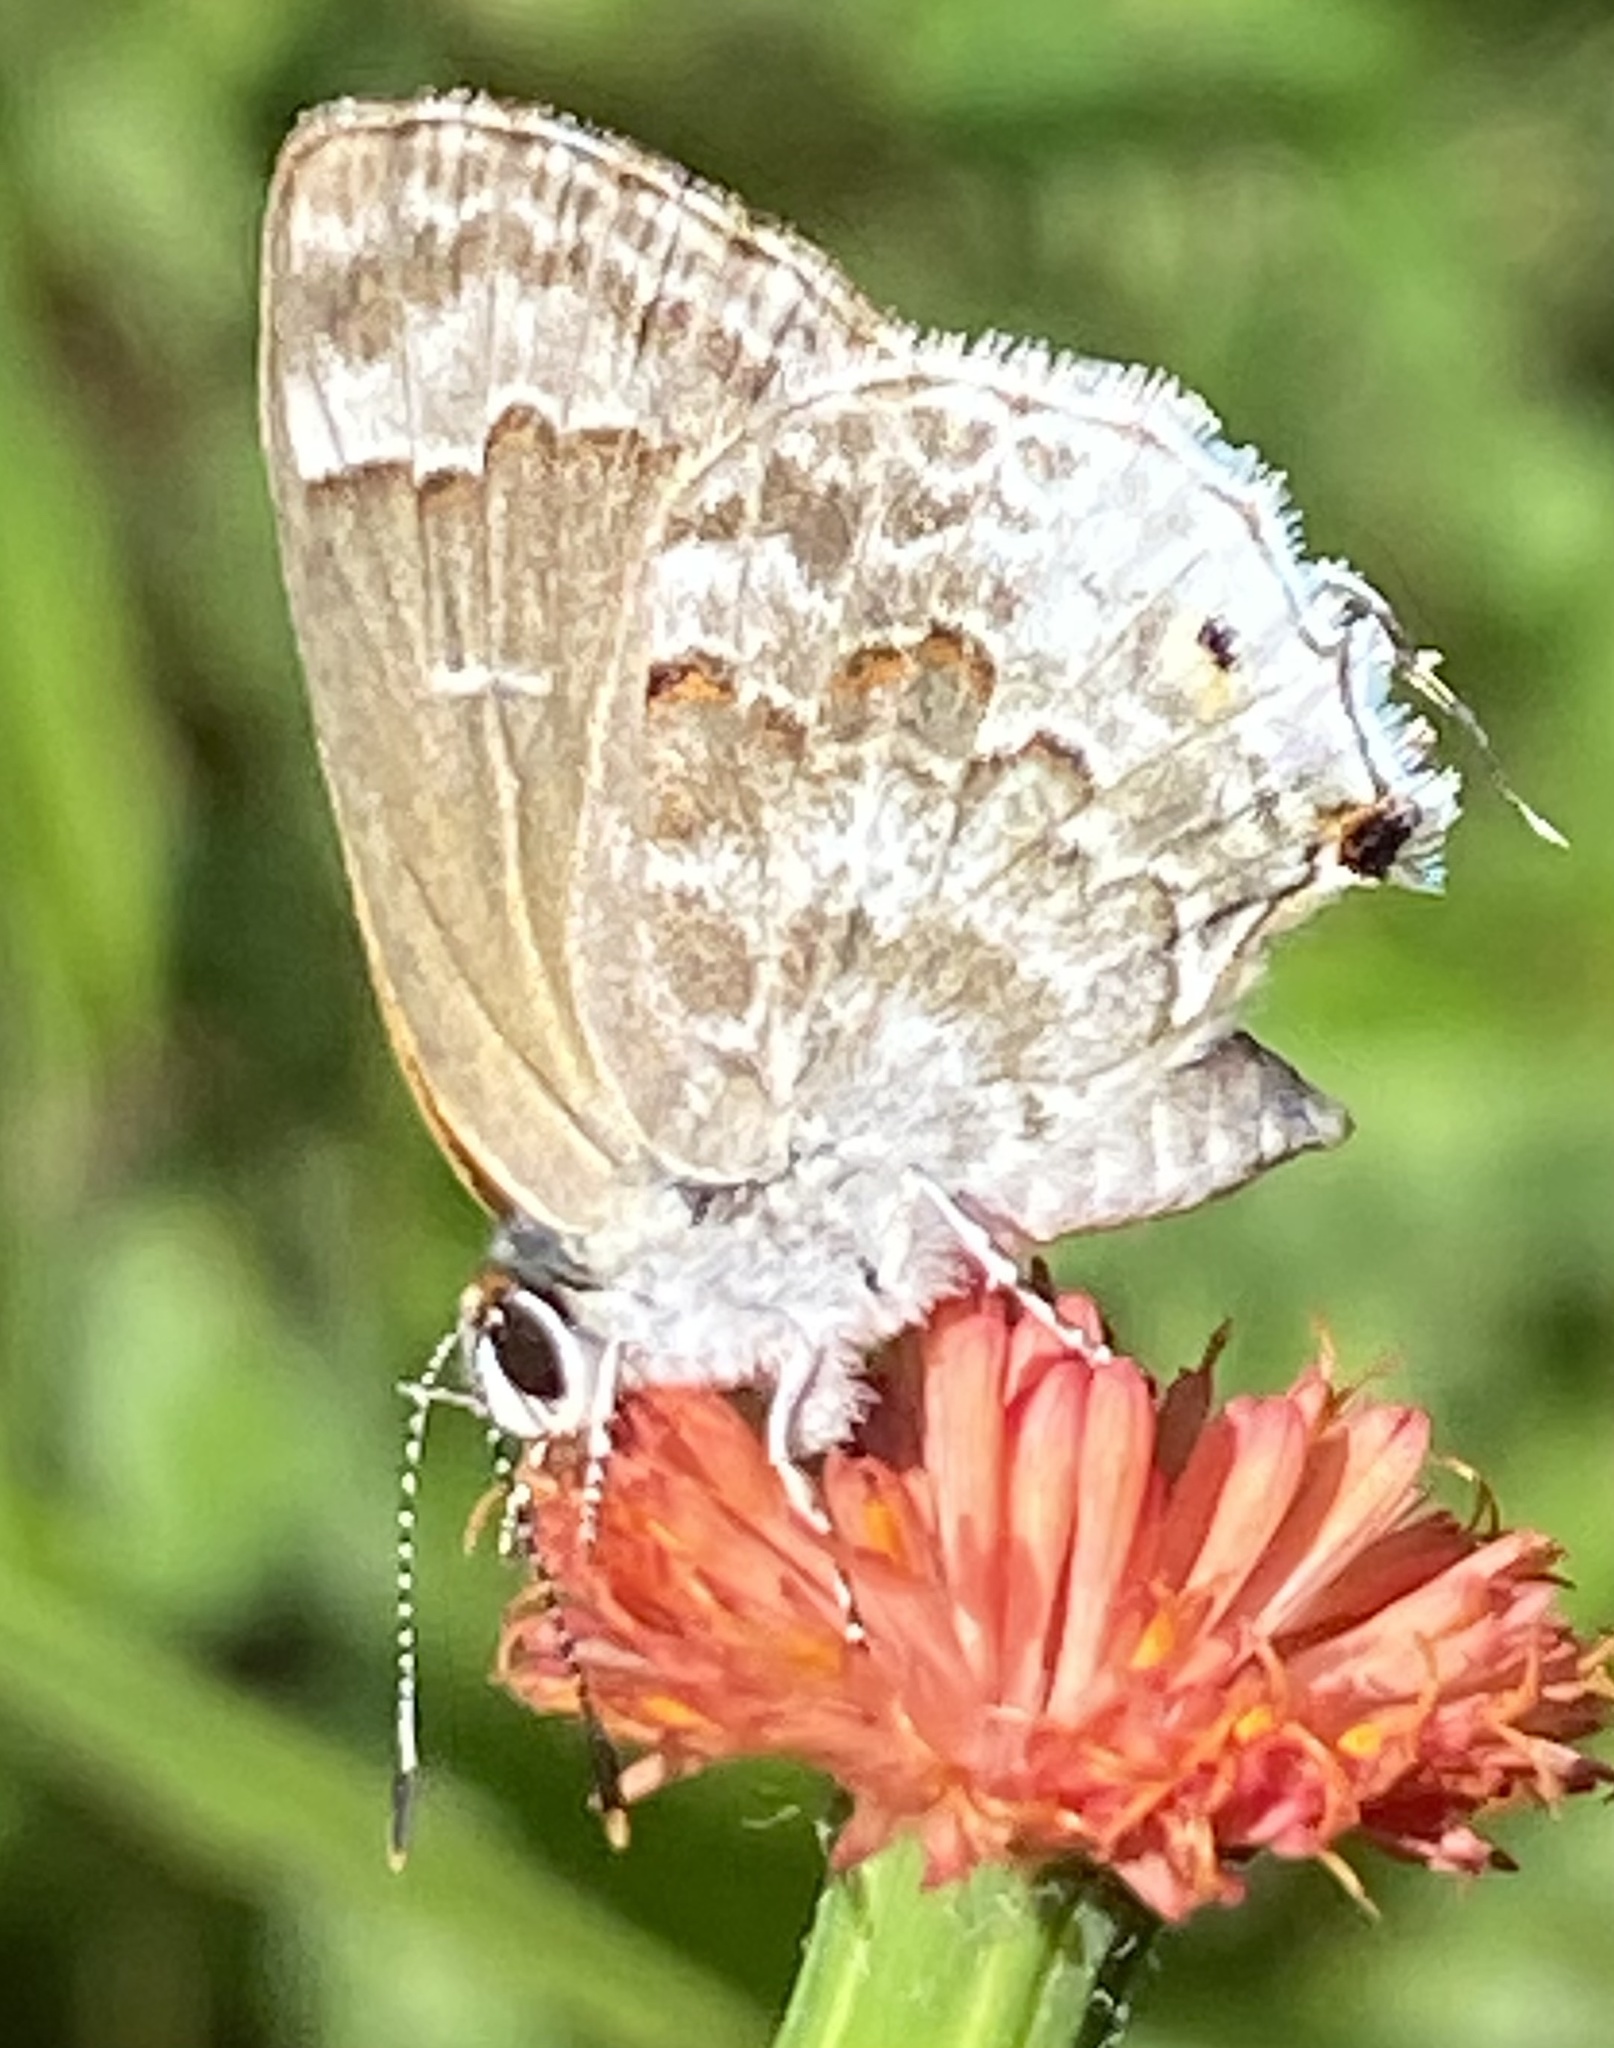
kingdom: Animalia
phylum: Arthropoda
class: Insecta
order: Lepidoptera
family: Lycaenidae
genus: Strymon
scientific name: Strymon mulucha
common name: Mottled scrub-hairstreak
